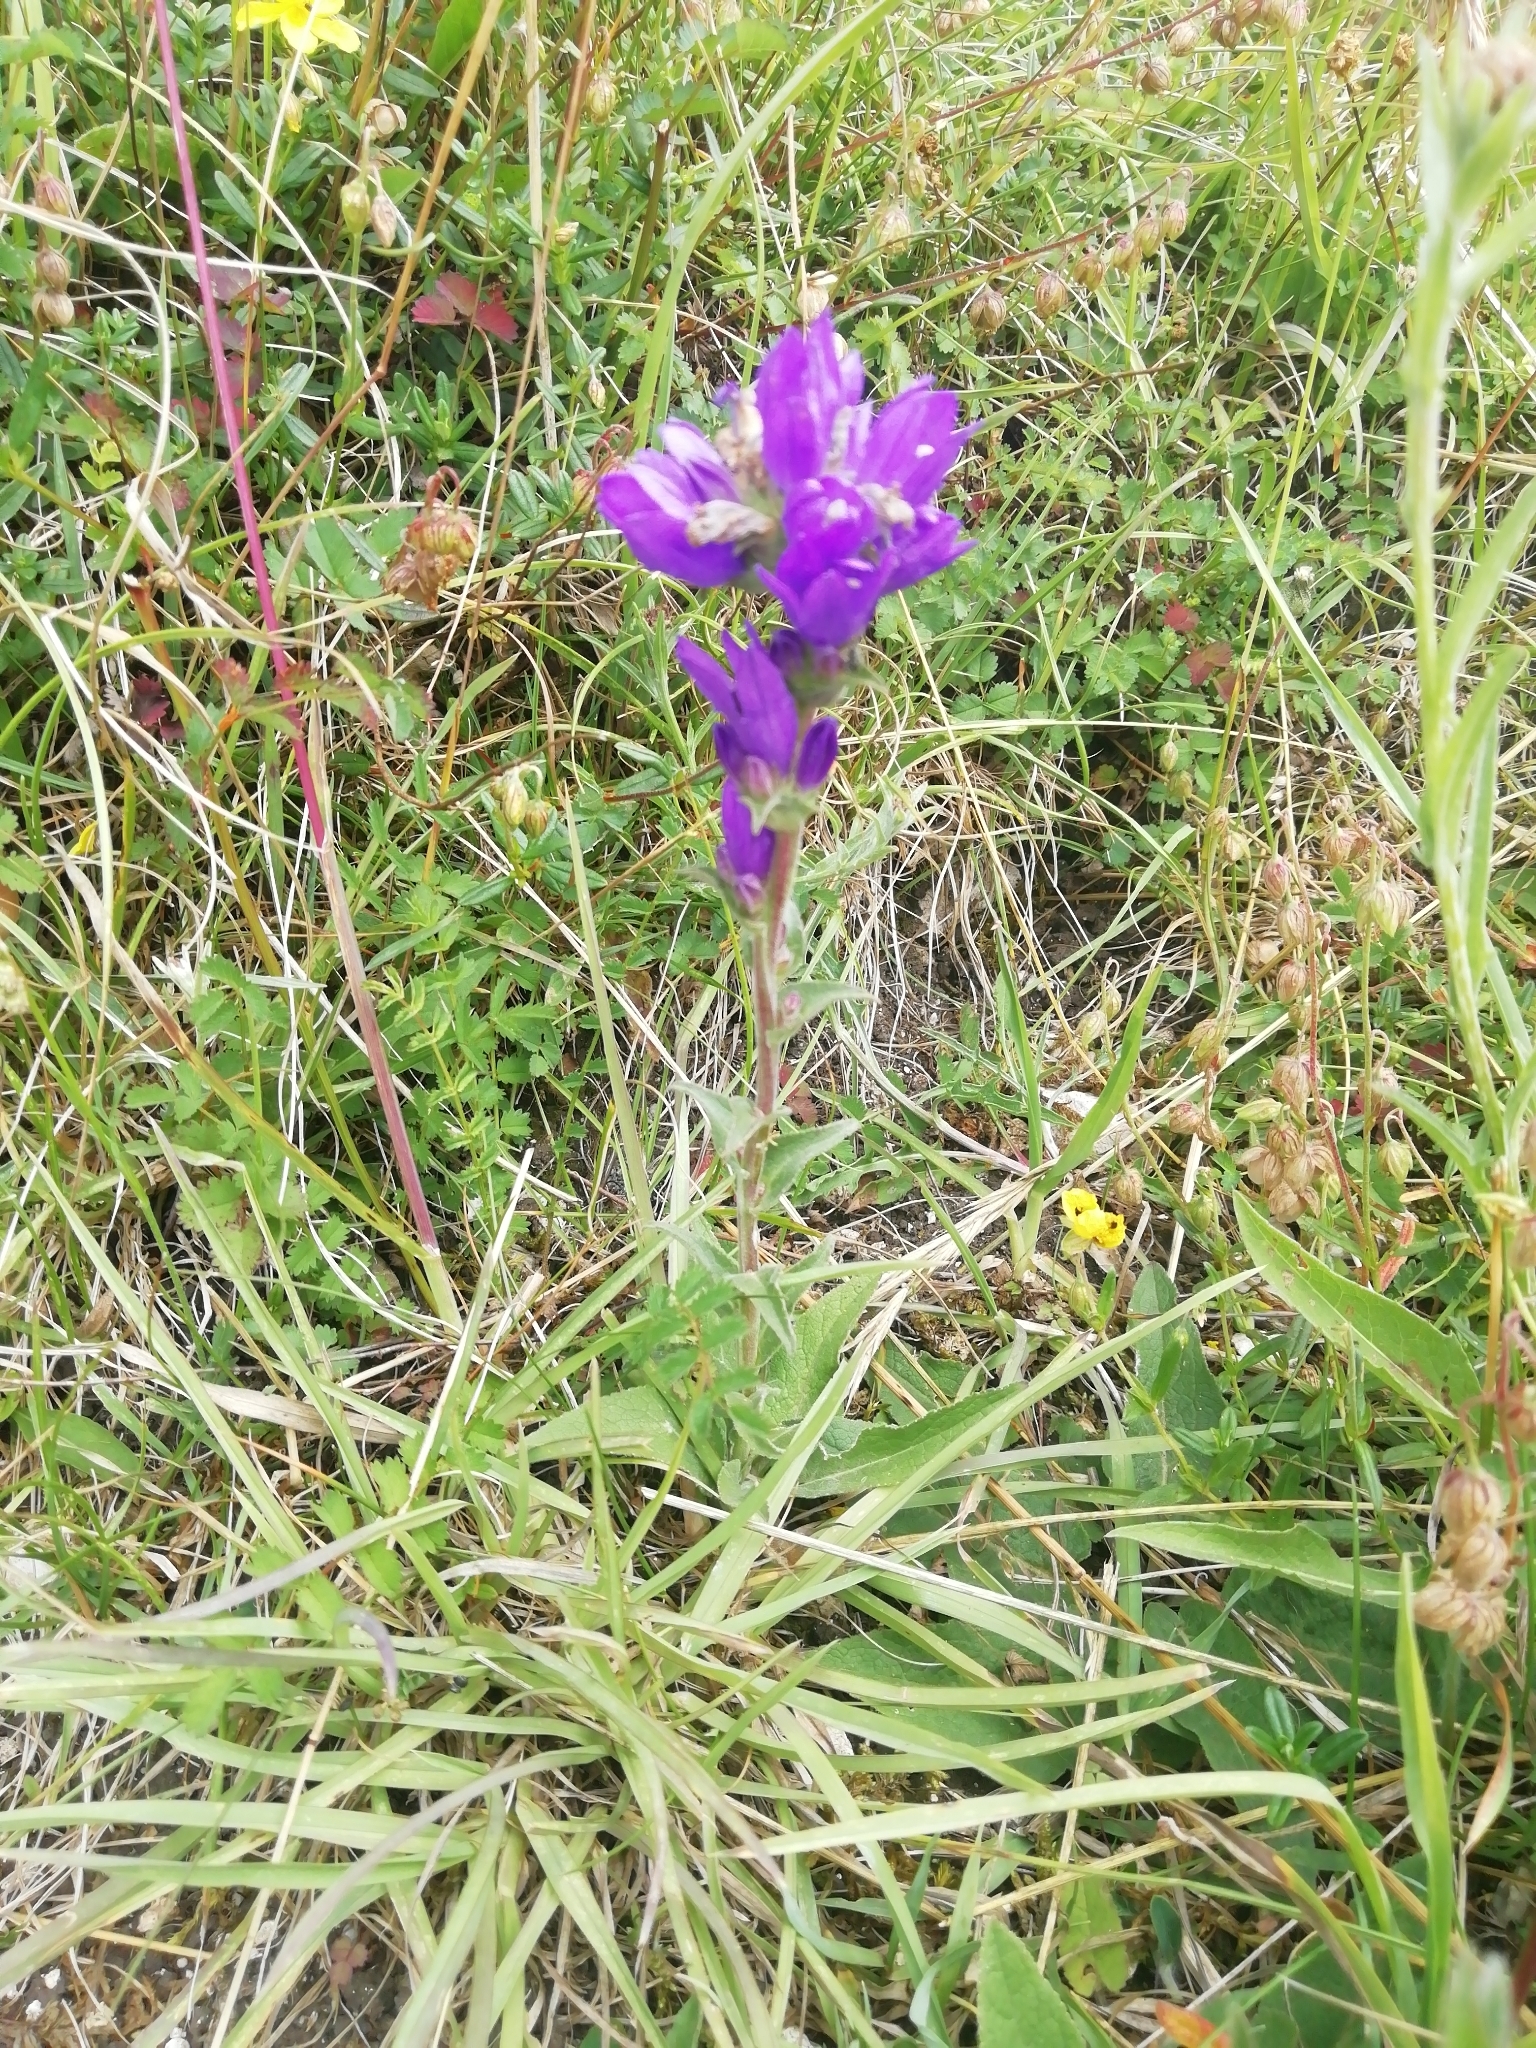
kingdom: Plantae
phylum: Tracheophyta
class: Magnoliopsida
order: Asterales
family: Campanulaceae
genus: Campanula
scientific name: Campanula glomerata
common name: Clustered bellflower
